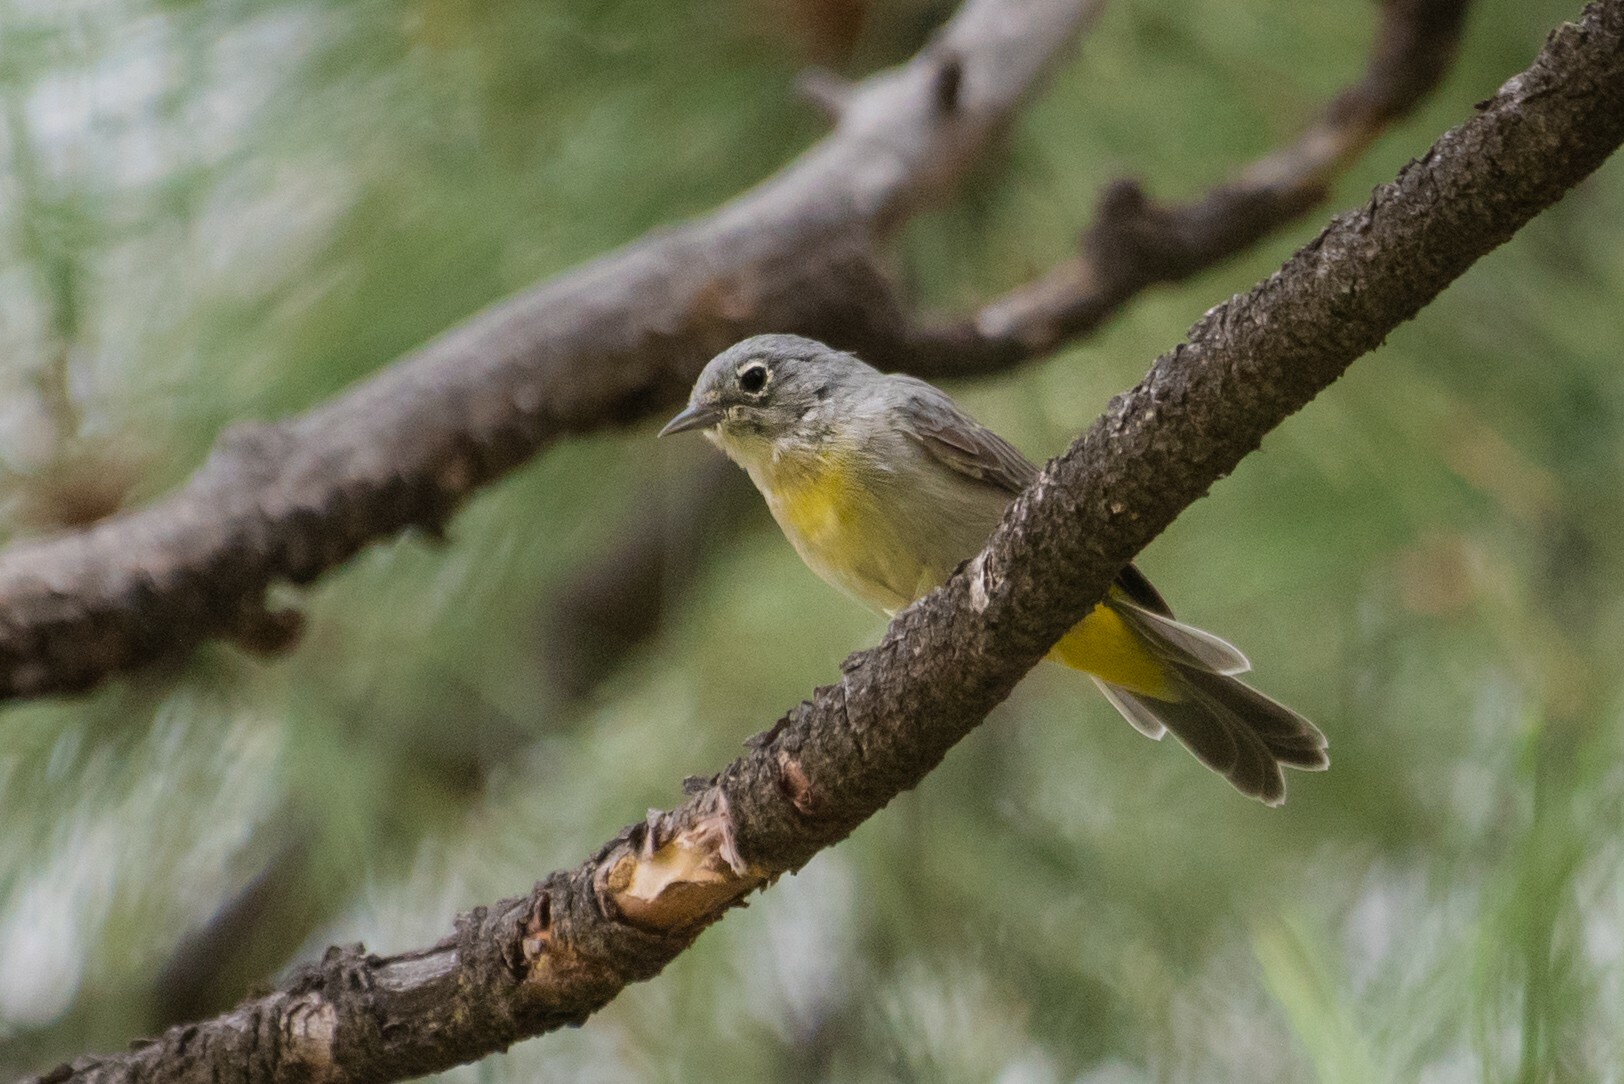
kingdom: Animalia
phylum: Chordata
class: Aves
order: Passeriformes
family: Parulidae
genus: Leiothlypis
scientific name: Leiothlypis virginiae
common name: Virginia's warbler
